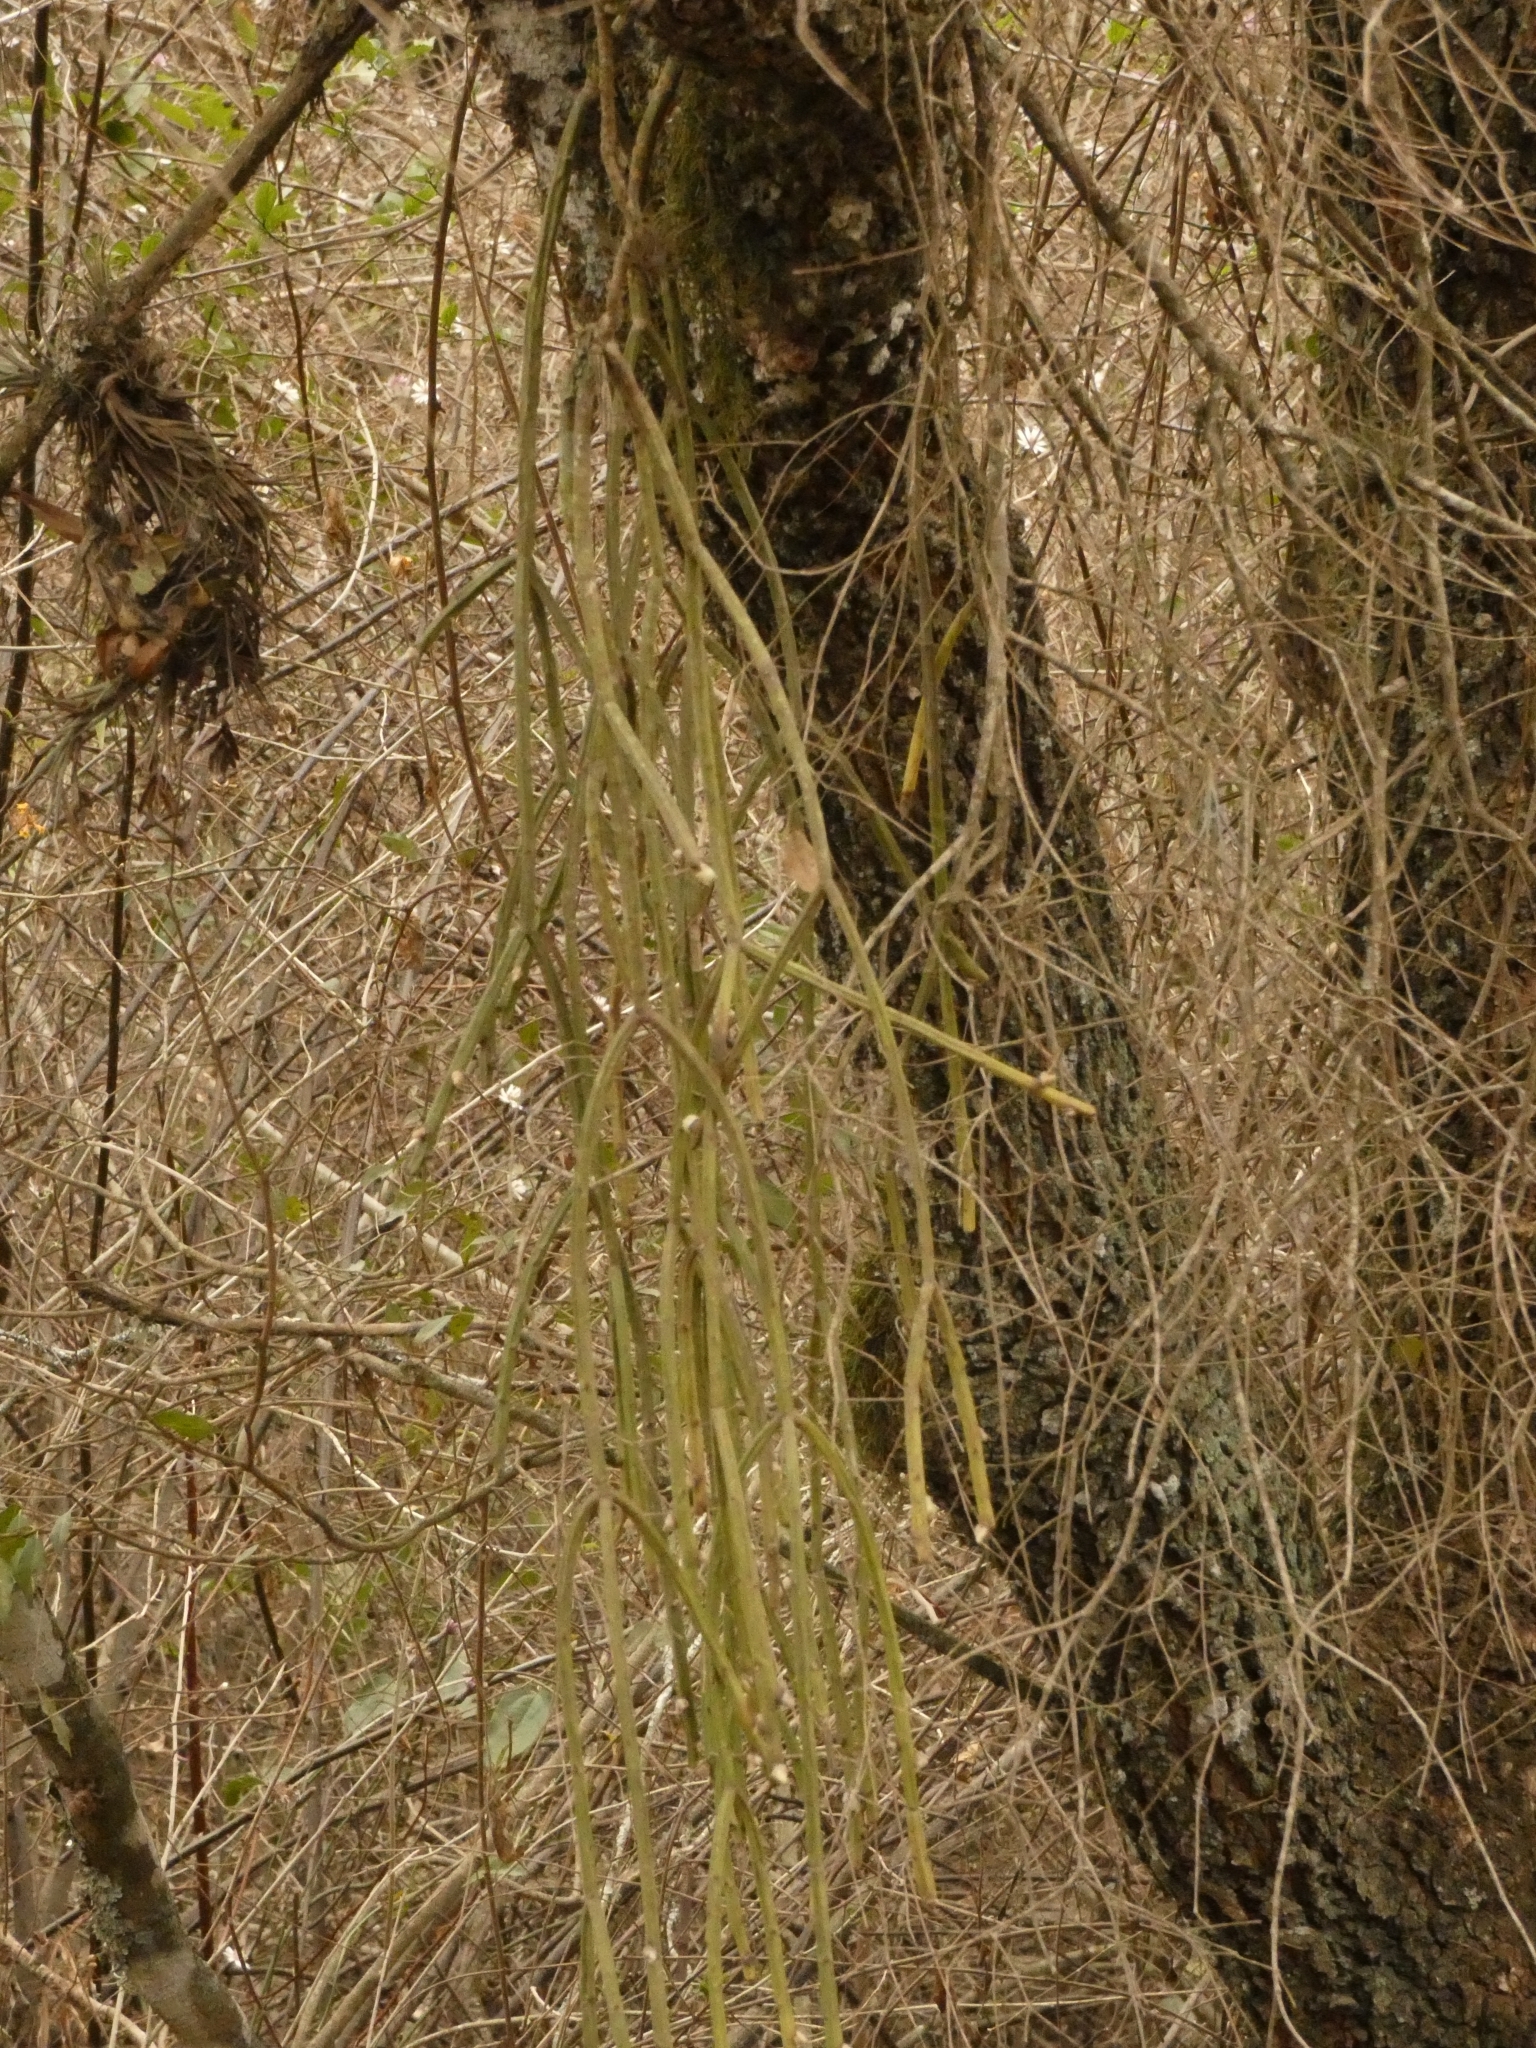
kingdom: Plantae
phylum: Tracheophyta
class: Magnoliopsida
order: Caryophyllales
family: Cactaceae
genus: Rhipsalis
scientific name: Rhipsalis floccosa
